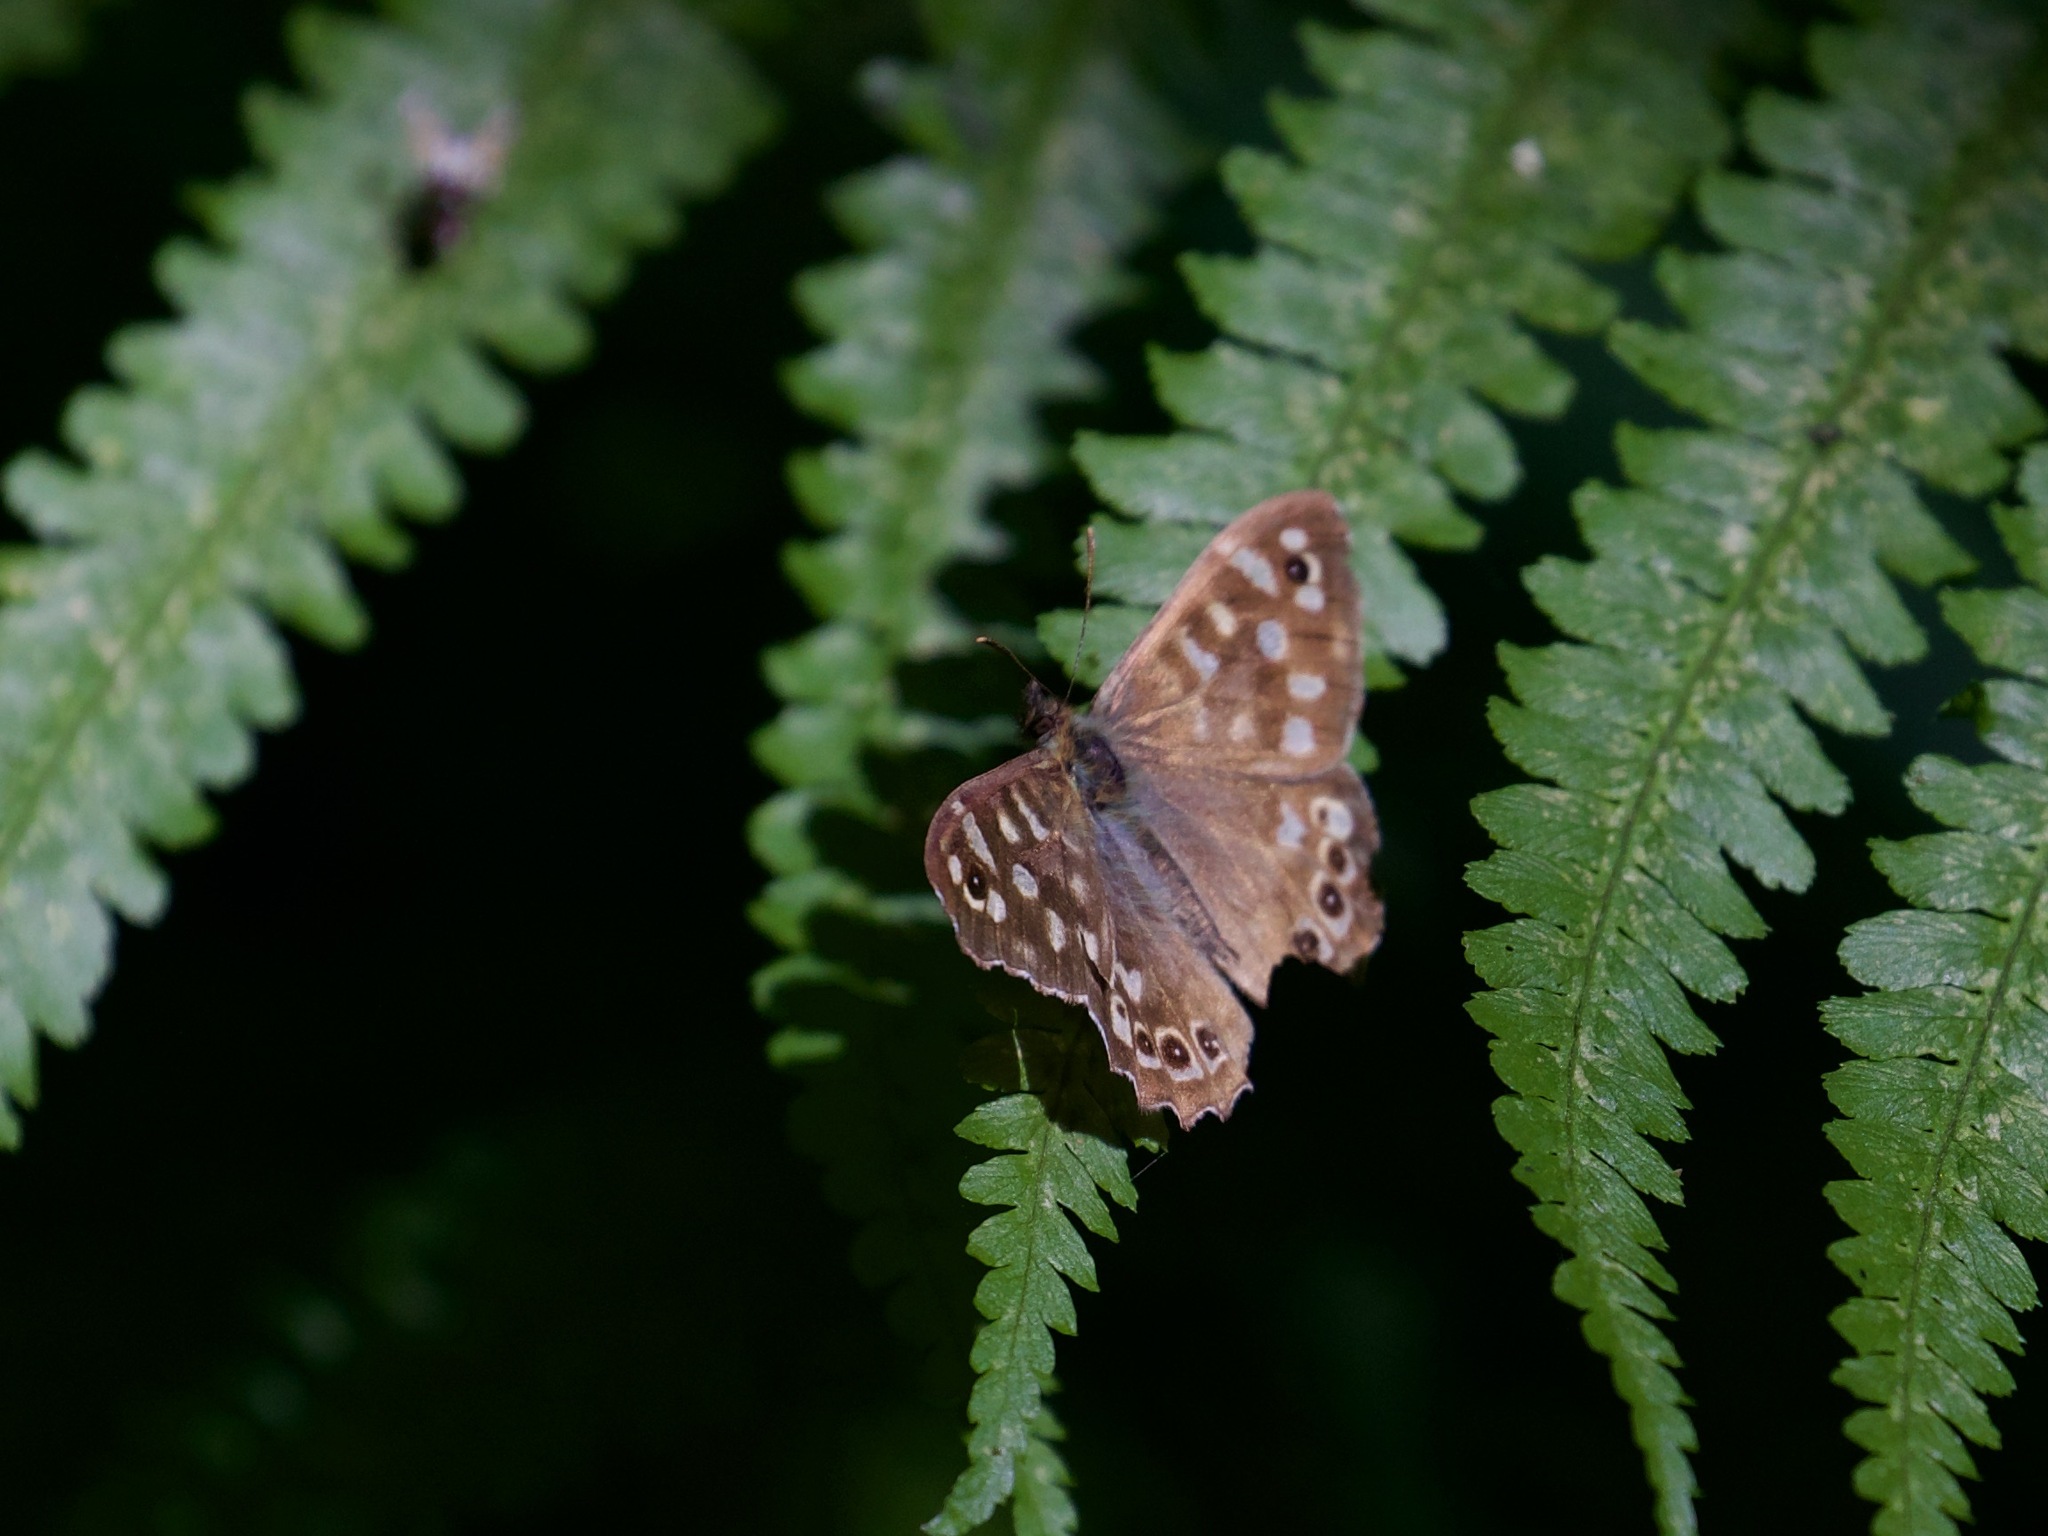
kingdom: Animalia
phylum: Arthropoda
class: Insecta
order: Lepidoptera
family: Nymphalidae
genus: Pararge
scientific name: Pararge aegeria
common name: Speckled wood
